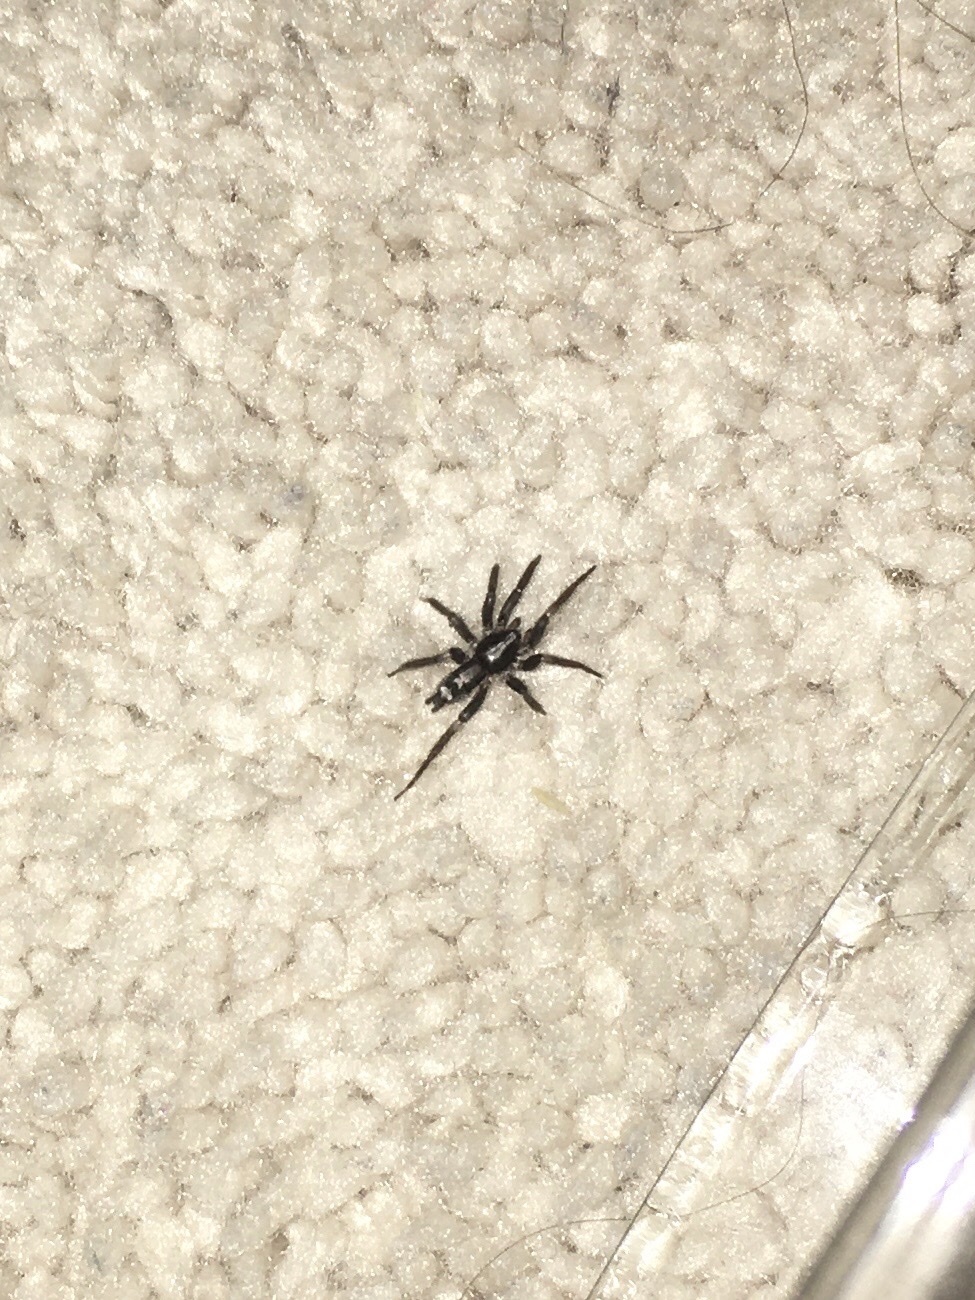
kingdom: Animalia
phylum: Arthropoda
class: Arachnida
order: Araneae
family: Gnaphosidae
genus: Herpyllus
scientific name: Herpyllus ecclesiasticus
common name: Eastern parson spider
